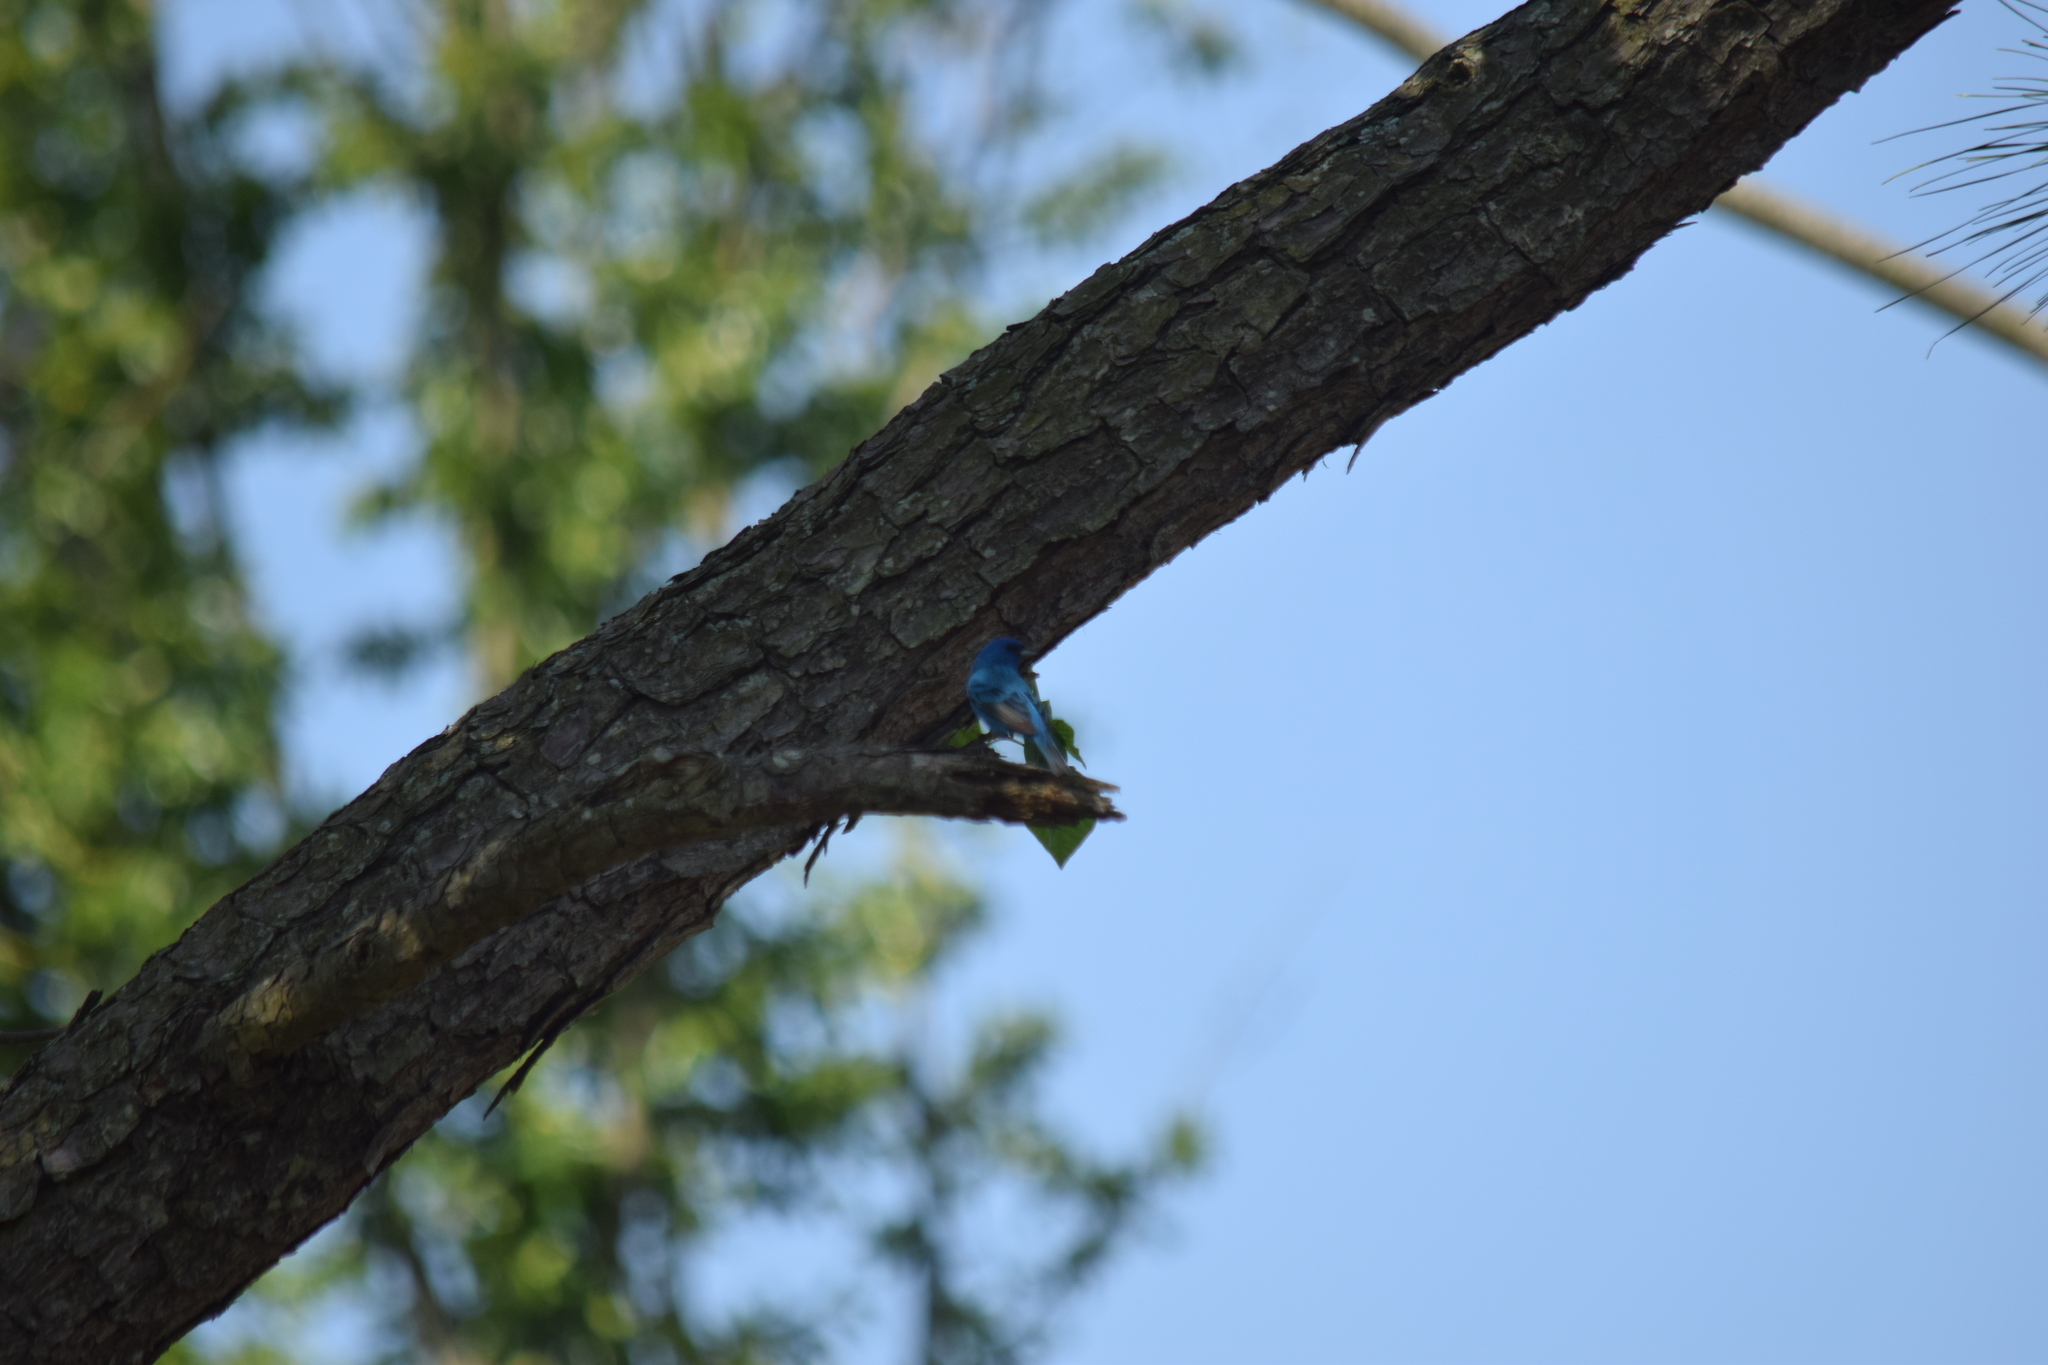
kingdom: Animalia
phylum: Chordata
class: Aves
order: Passeriformes
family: Cardinalidae
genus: Passerina
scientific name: Passerina cyanea
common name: Indigo bunting
